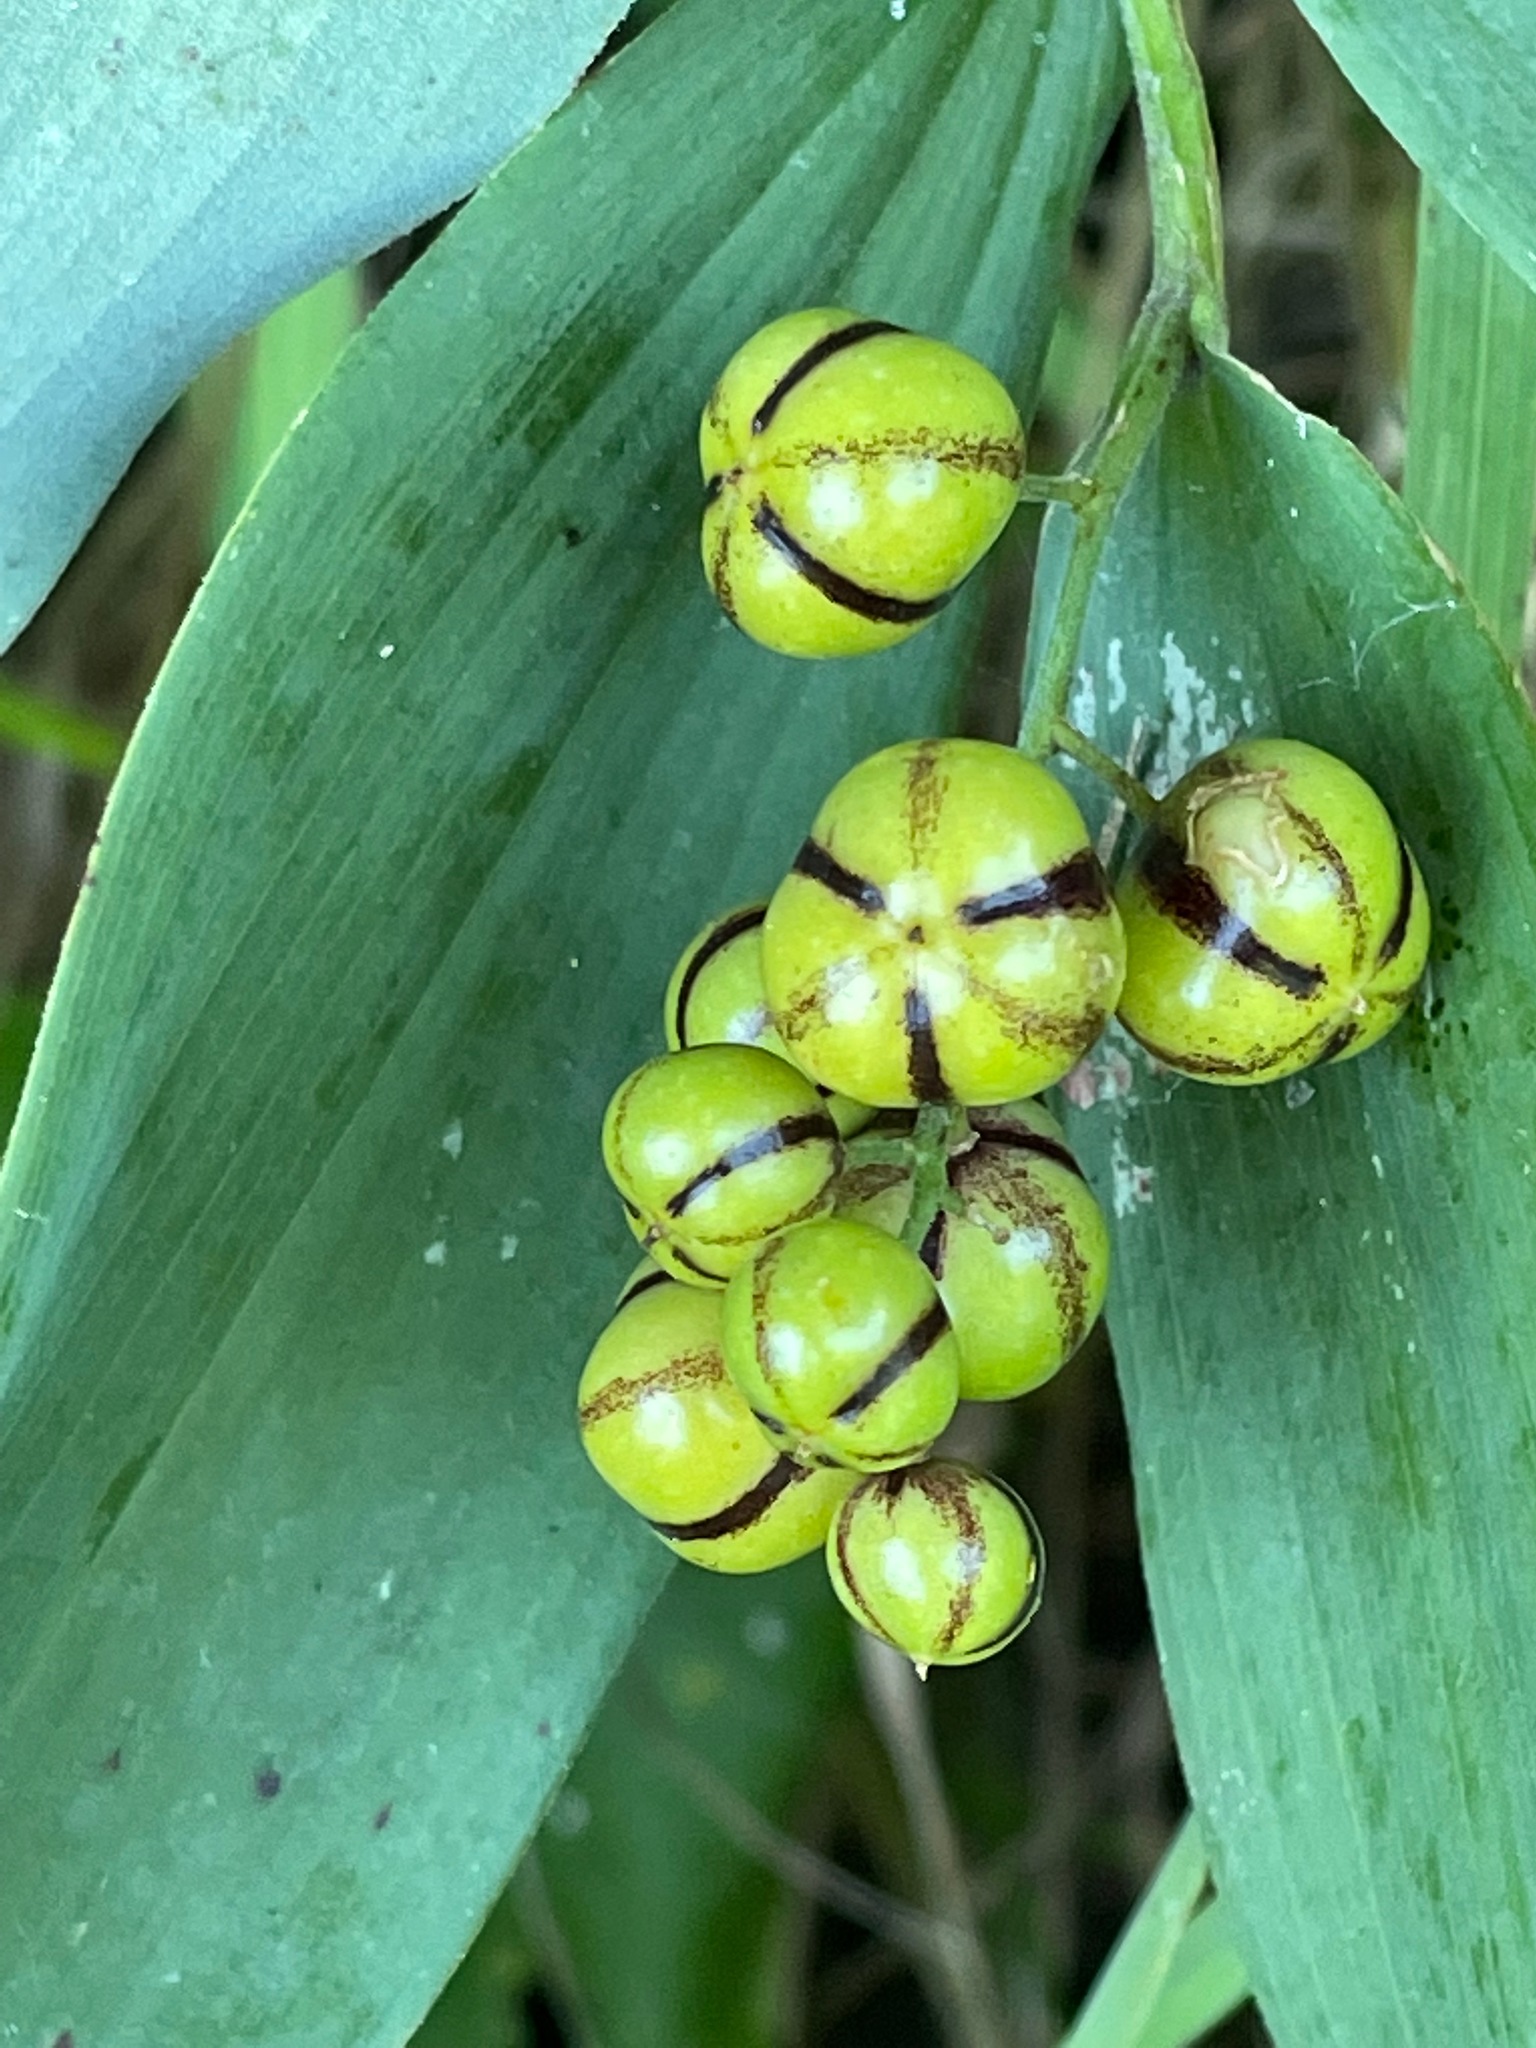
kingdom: Plantae
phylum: Tracheophyta
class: Liliopsida
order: Asparagales
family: Asparagaceae
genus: Maianthemum
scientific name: Maianthemum stellatum
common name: Little false solomon's seal
